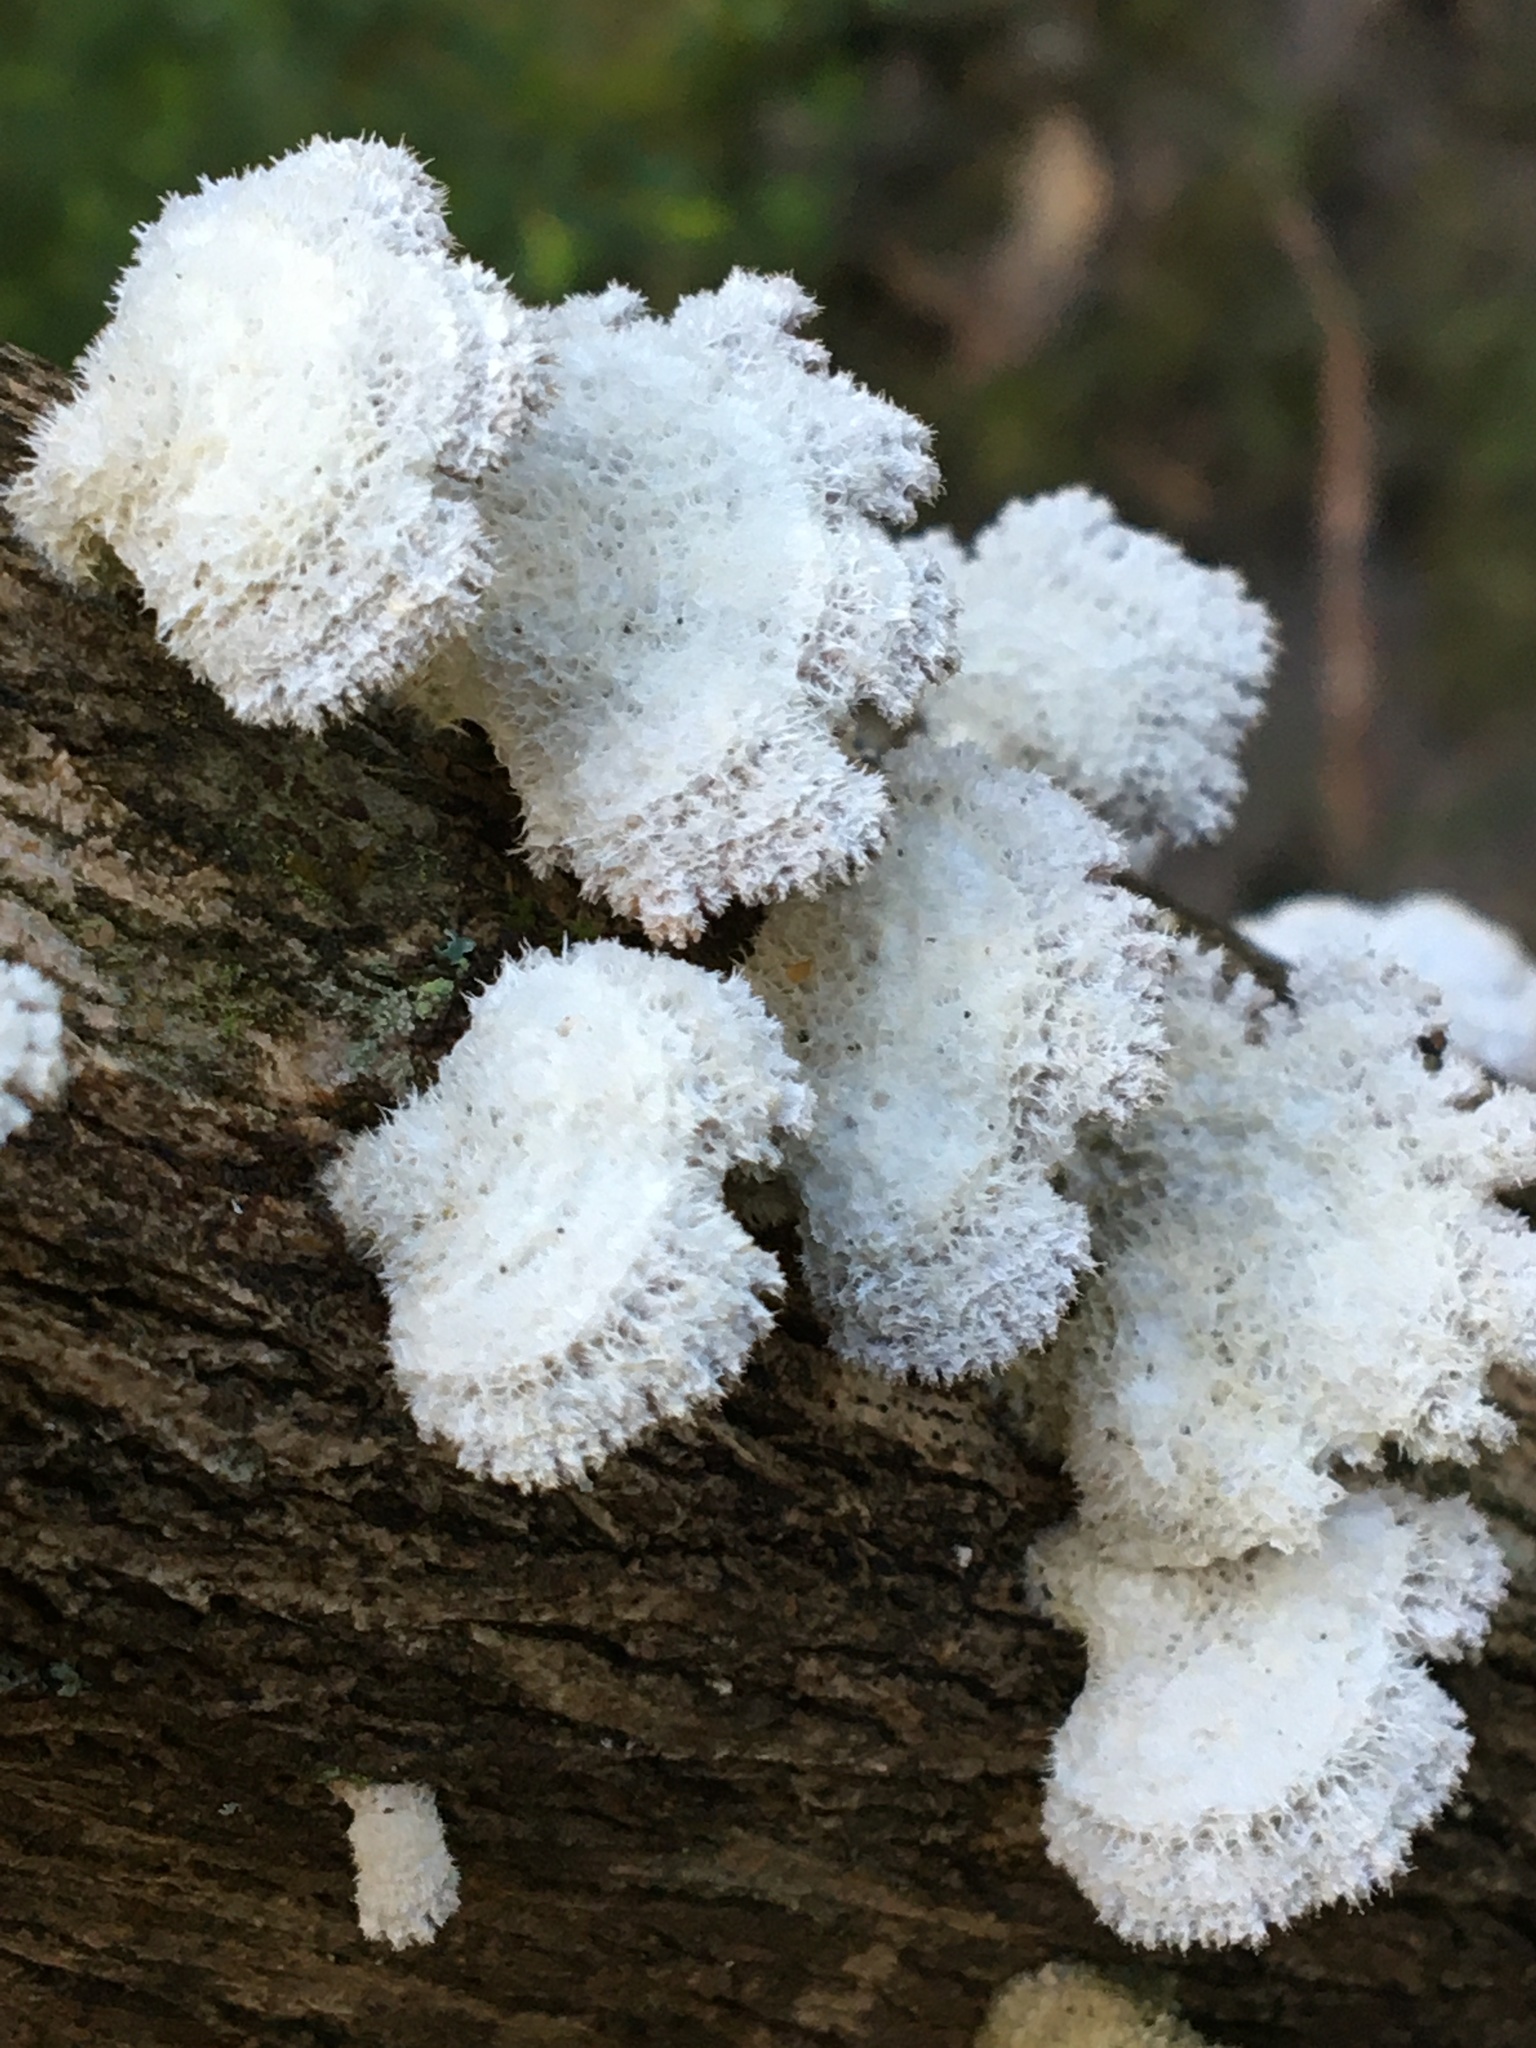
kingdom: Fungi
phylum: Basidiomycota
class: Agaricomycetes
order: Agaricales
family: Schizophyllaceae
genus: Schizophyllum
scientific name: Schizophyllum commune
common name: Common porecrust
